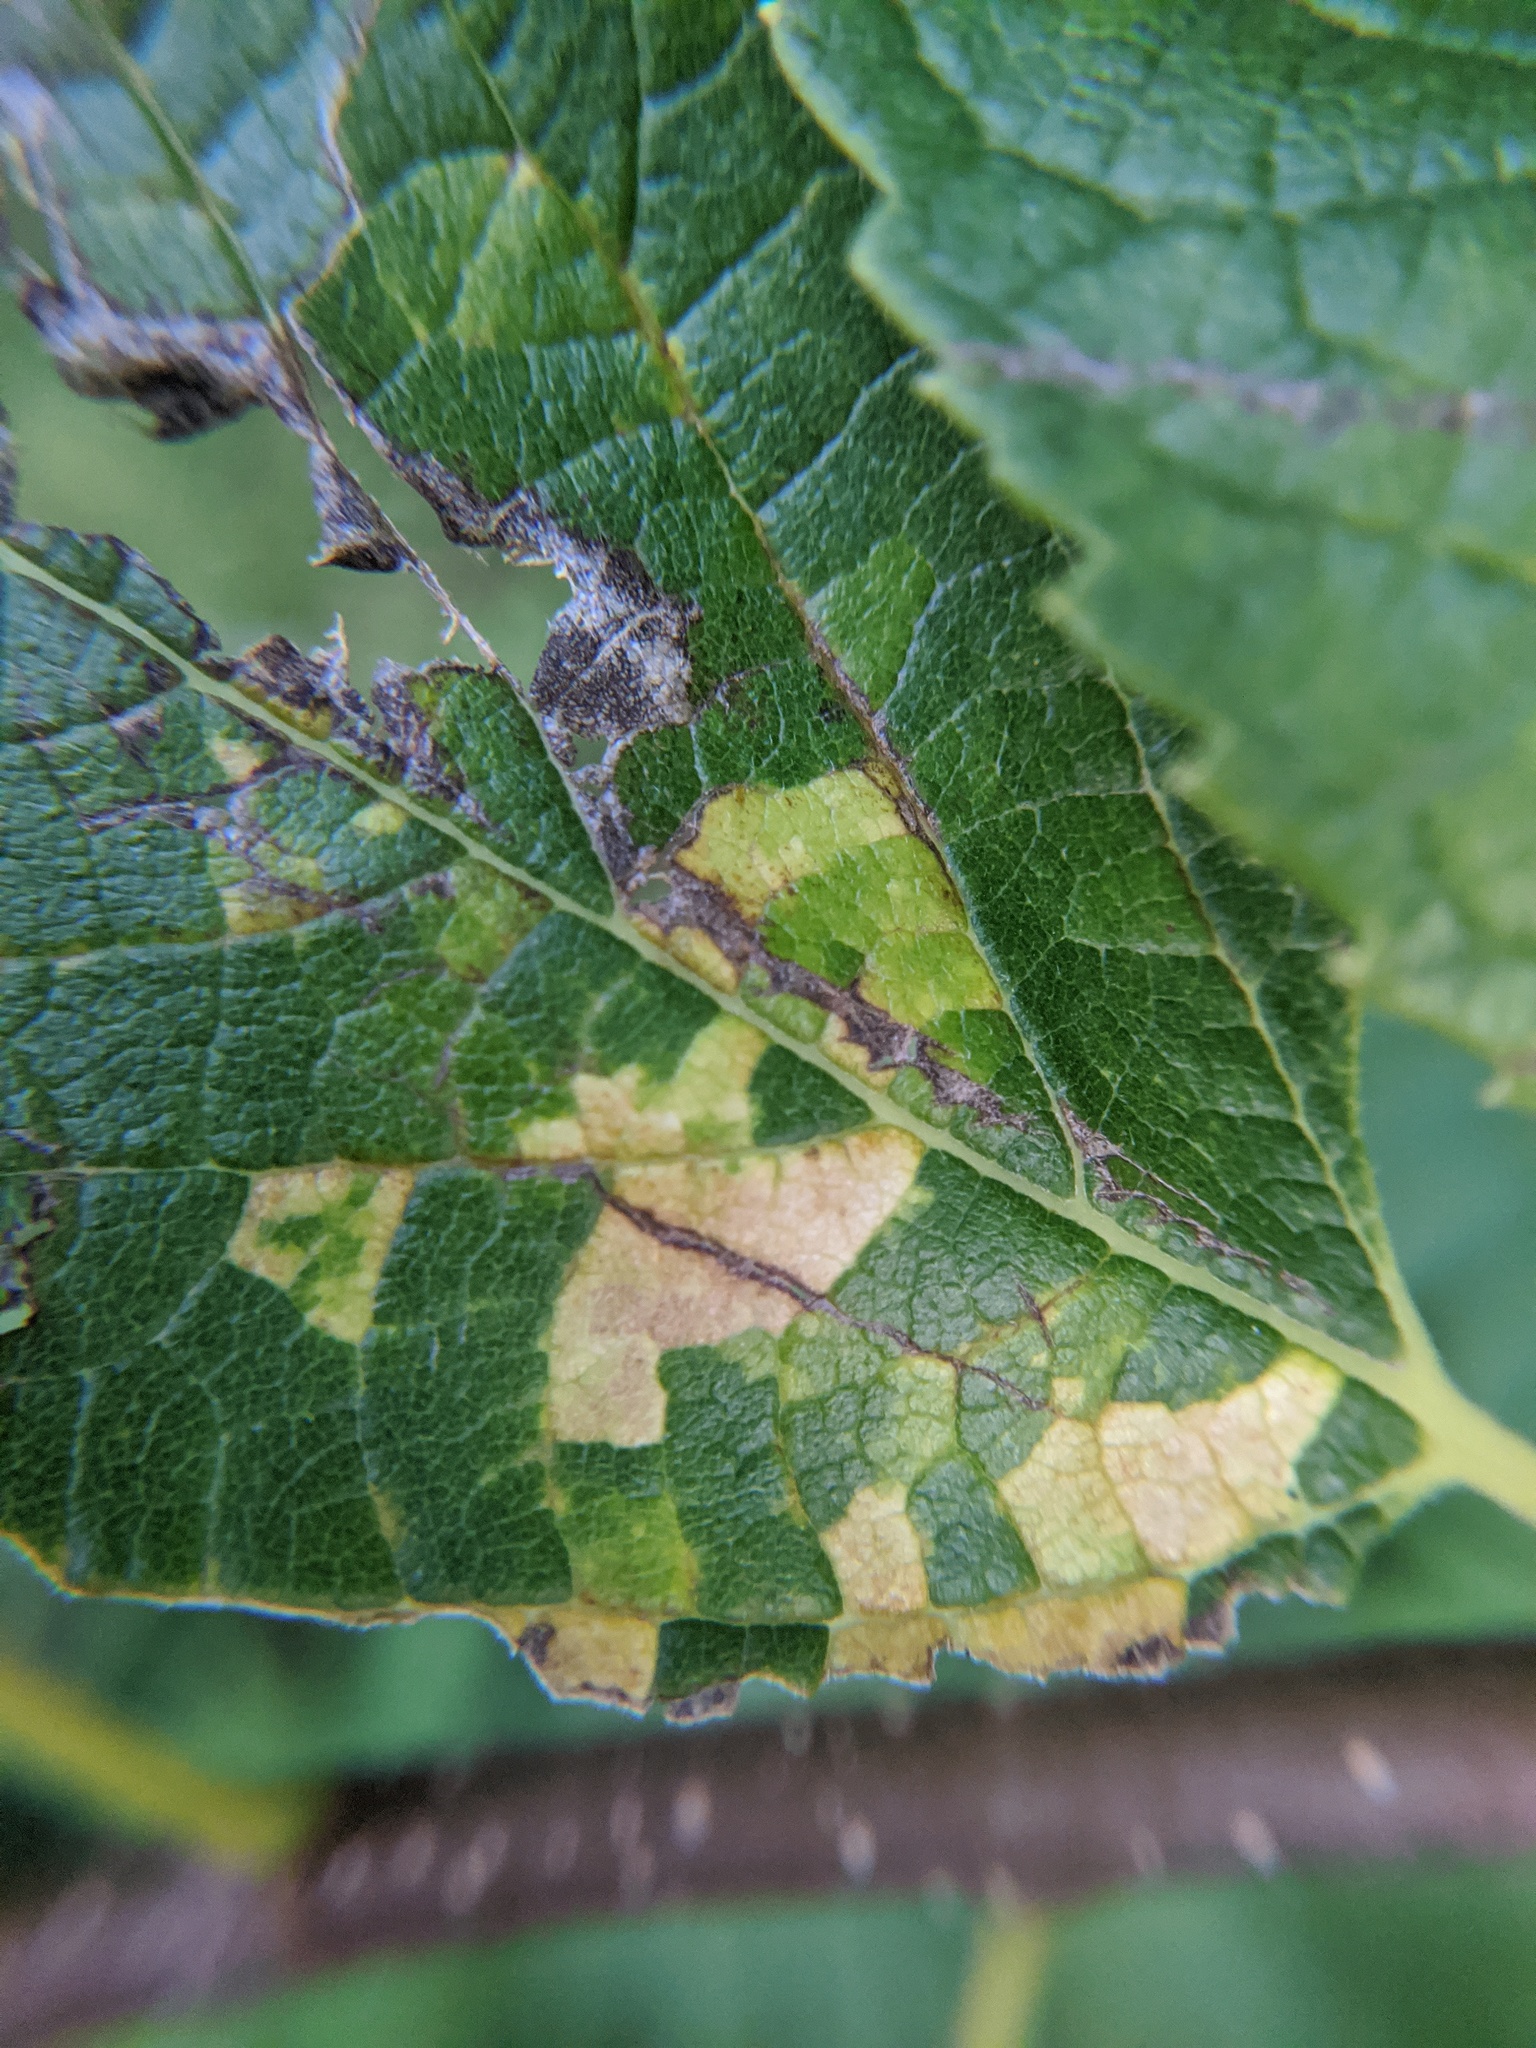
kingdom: Viruses
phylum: Kitrinoviricota
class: Alsuviricetes
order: Martellivirales
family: Closteroviridae
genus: Ampelovirus
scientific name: Ampelovirus
